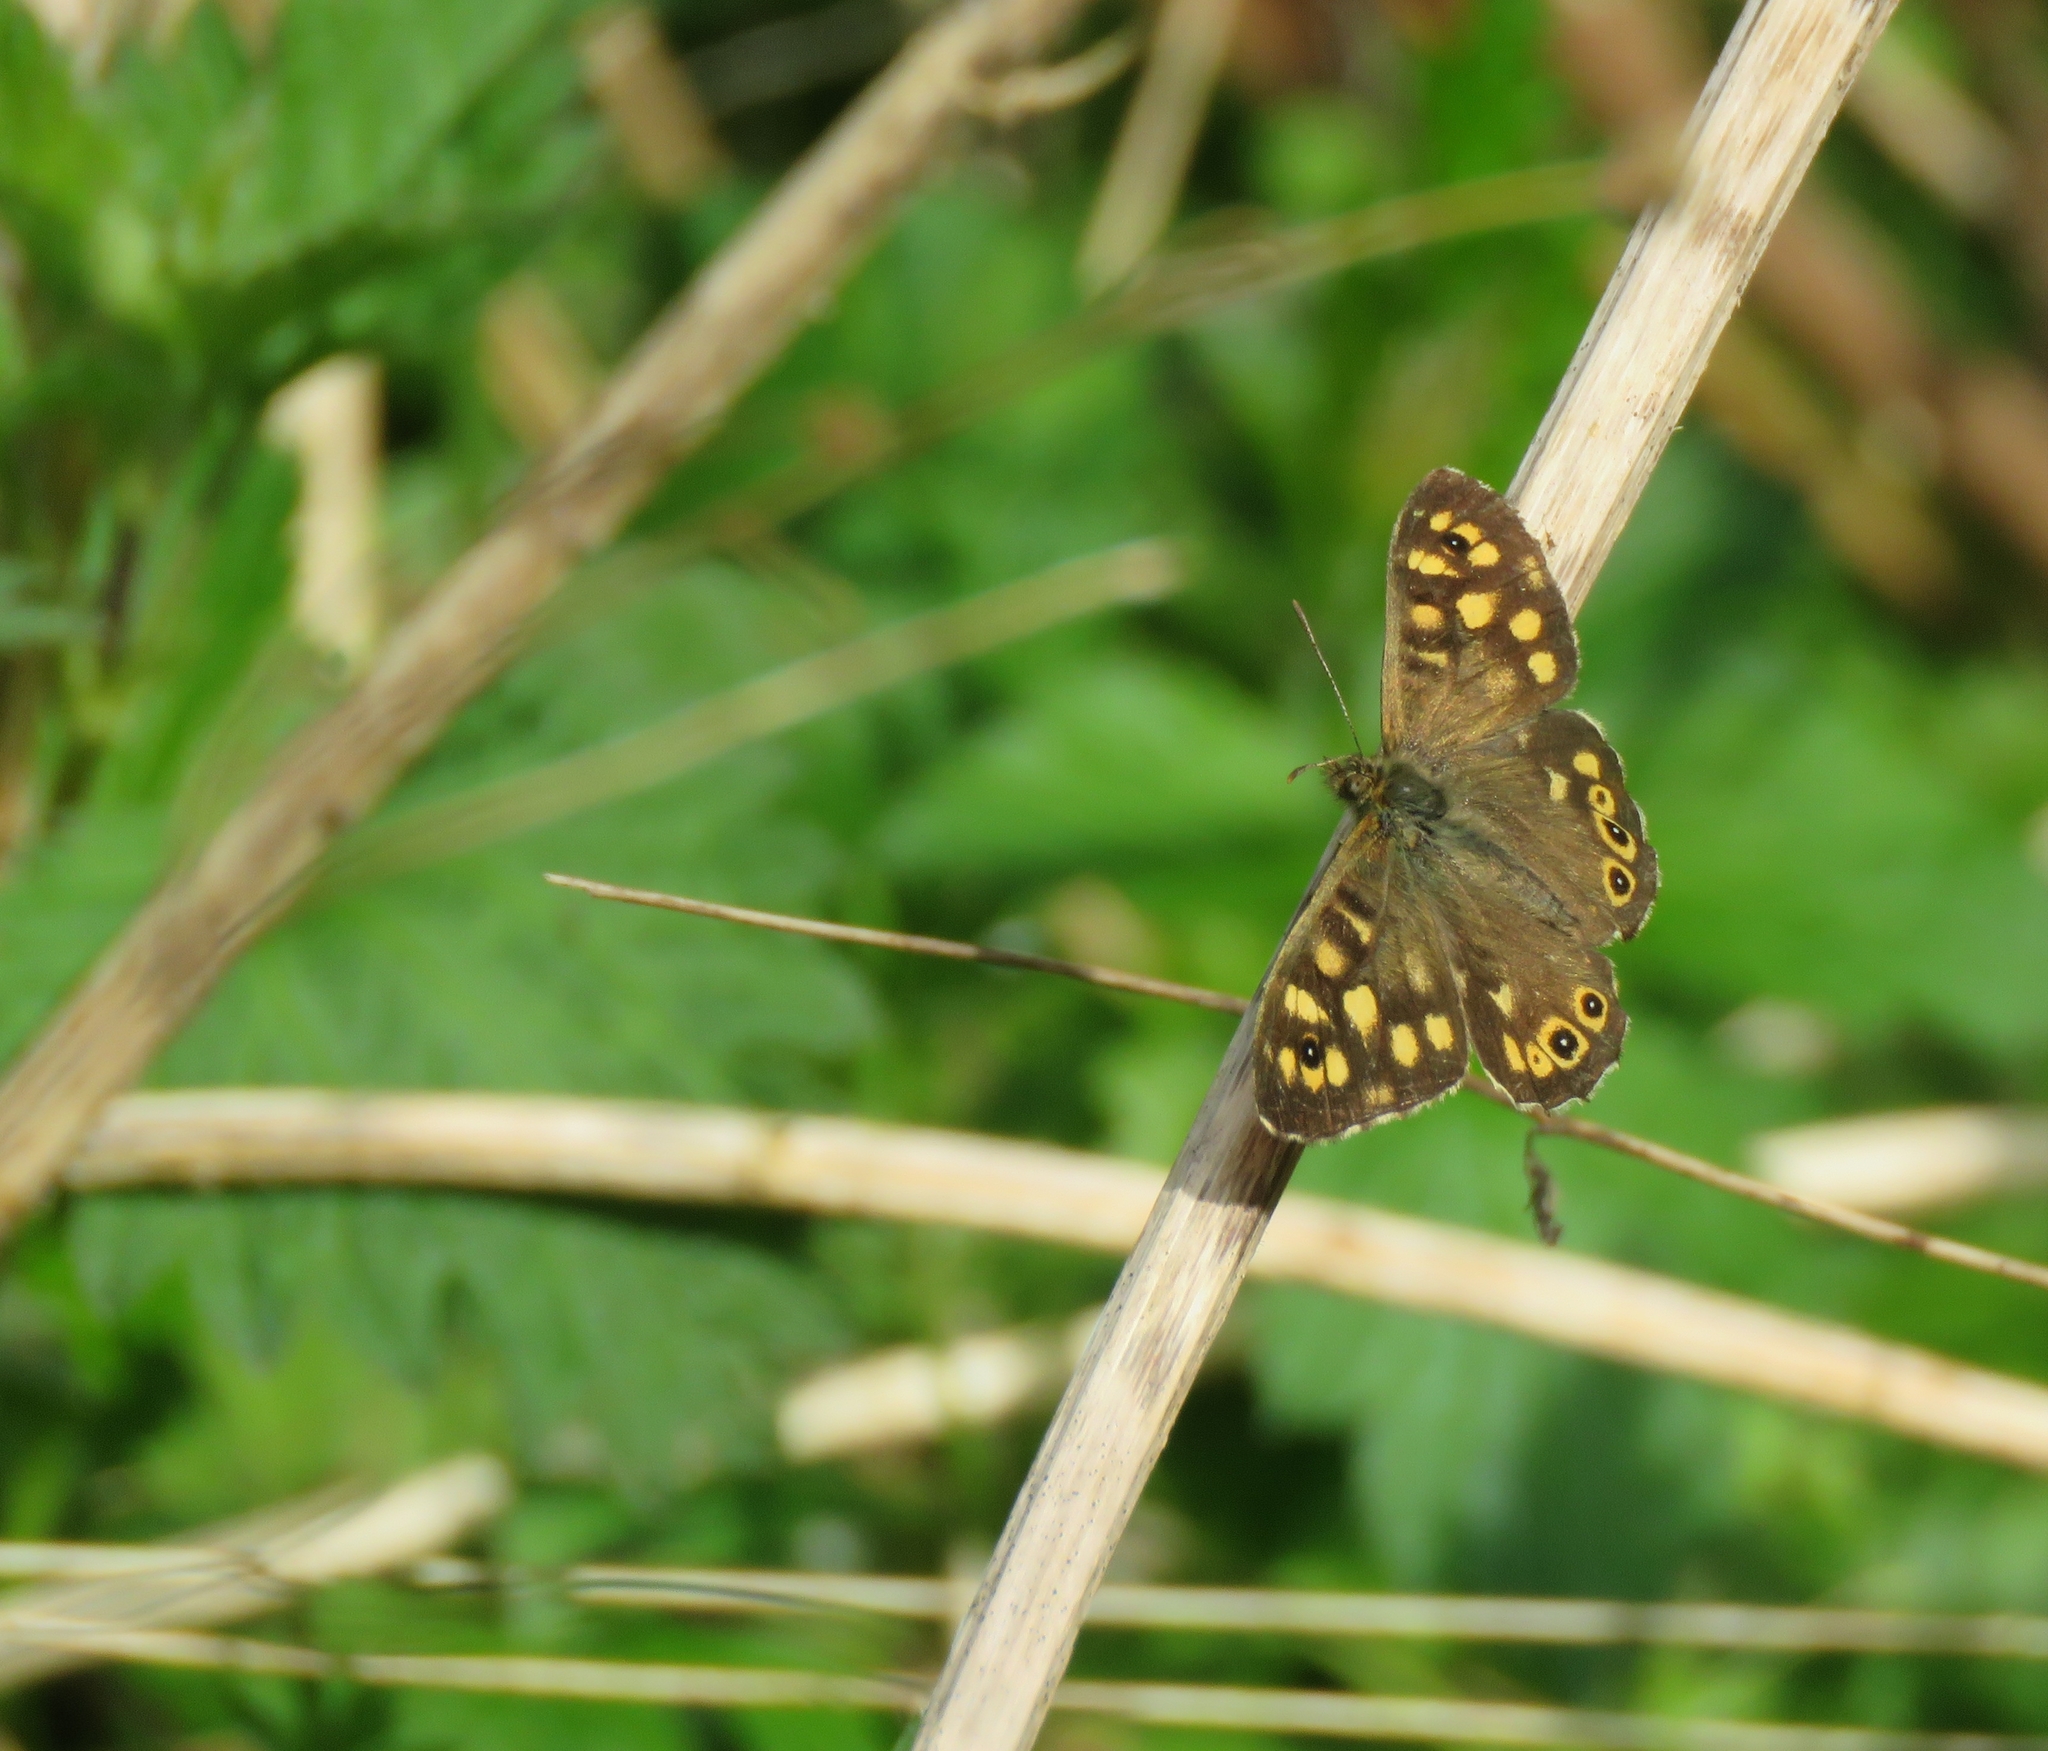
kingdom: Animalia
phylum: Arthropoda
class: Insecta
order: Lepidoptera
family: Nymphalidae
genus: Pararge
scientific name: Pararge aegeria
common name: Speckled wood
